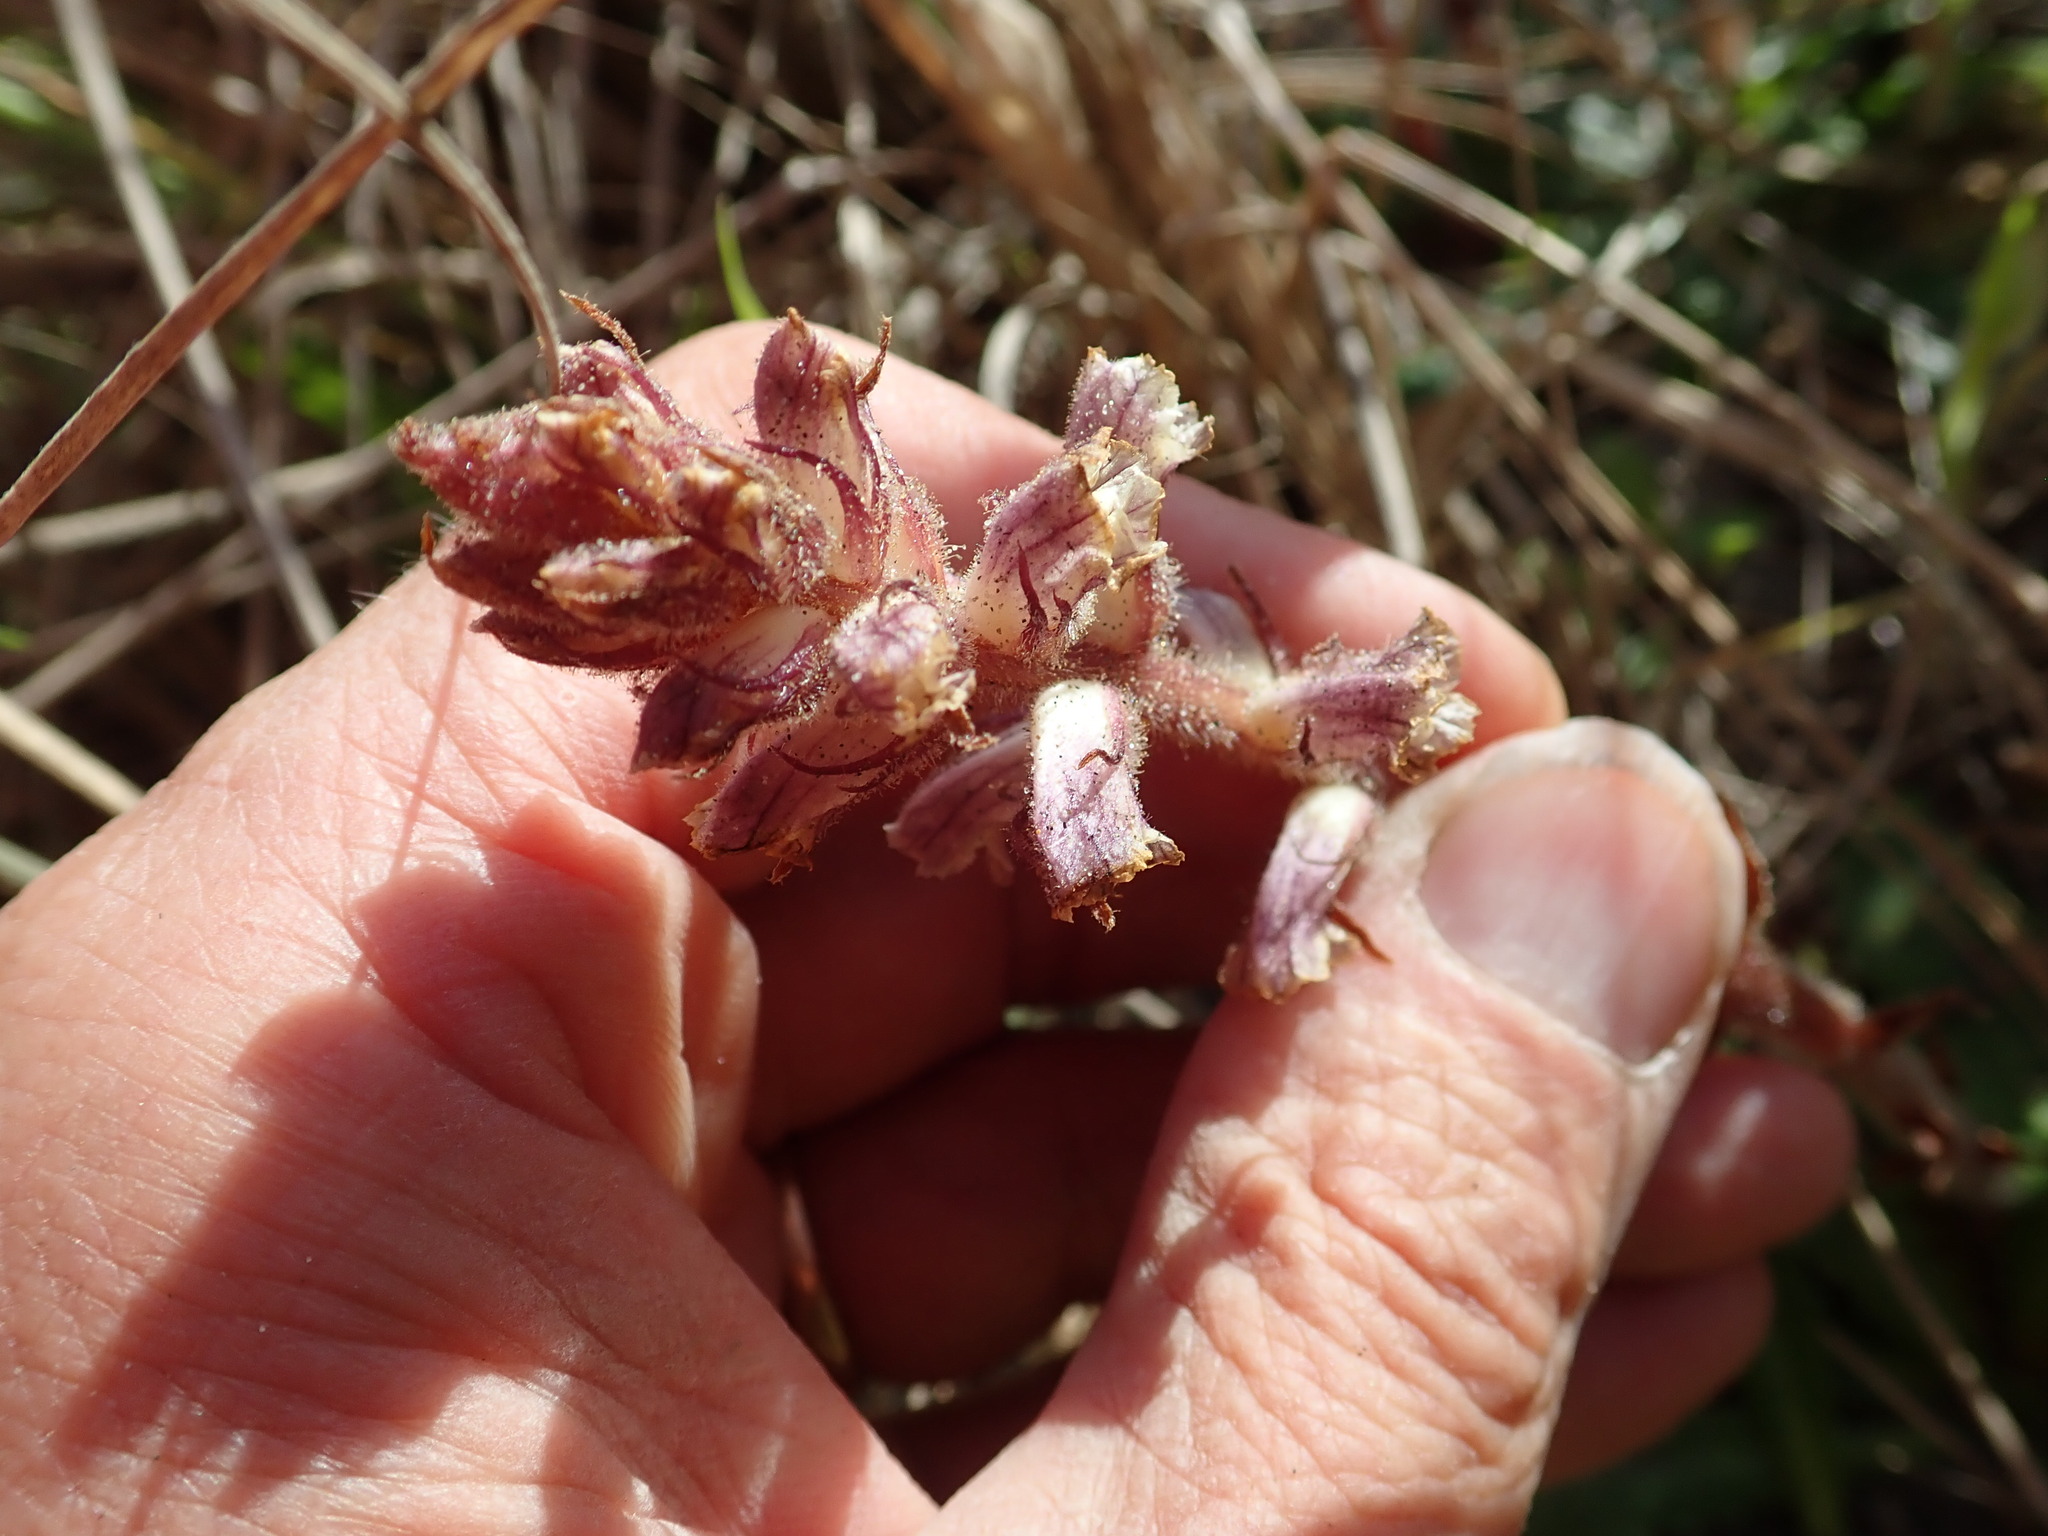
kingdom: Plantae
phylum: Tracheophyta
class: Magnoliopsida
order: Lamiales
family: Orobanchaceae
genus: Orobanche
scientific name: Orobanche minor
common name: Common broomrape
